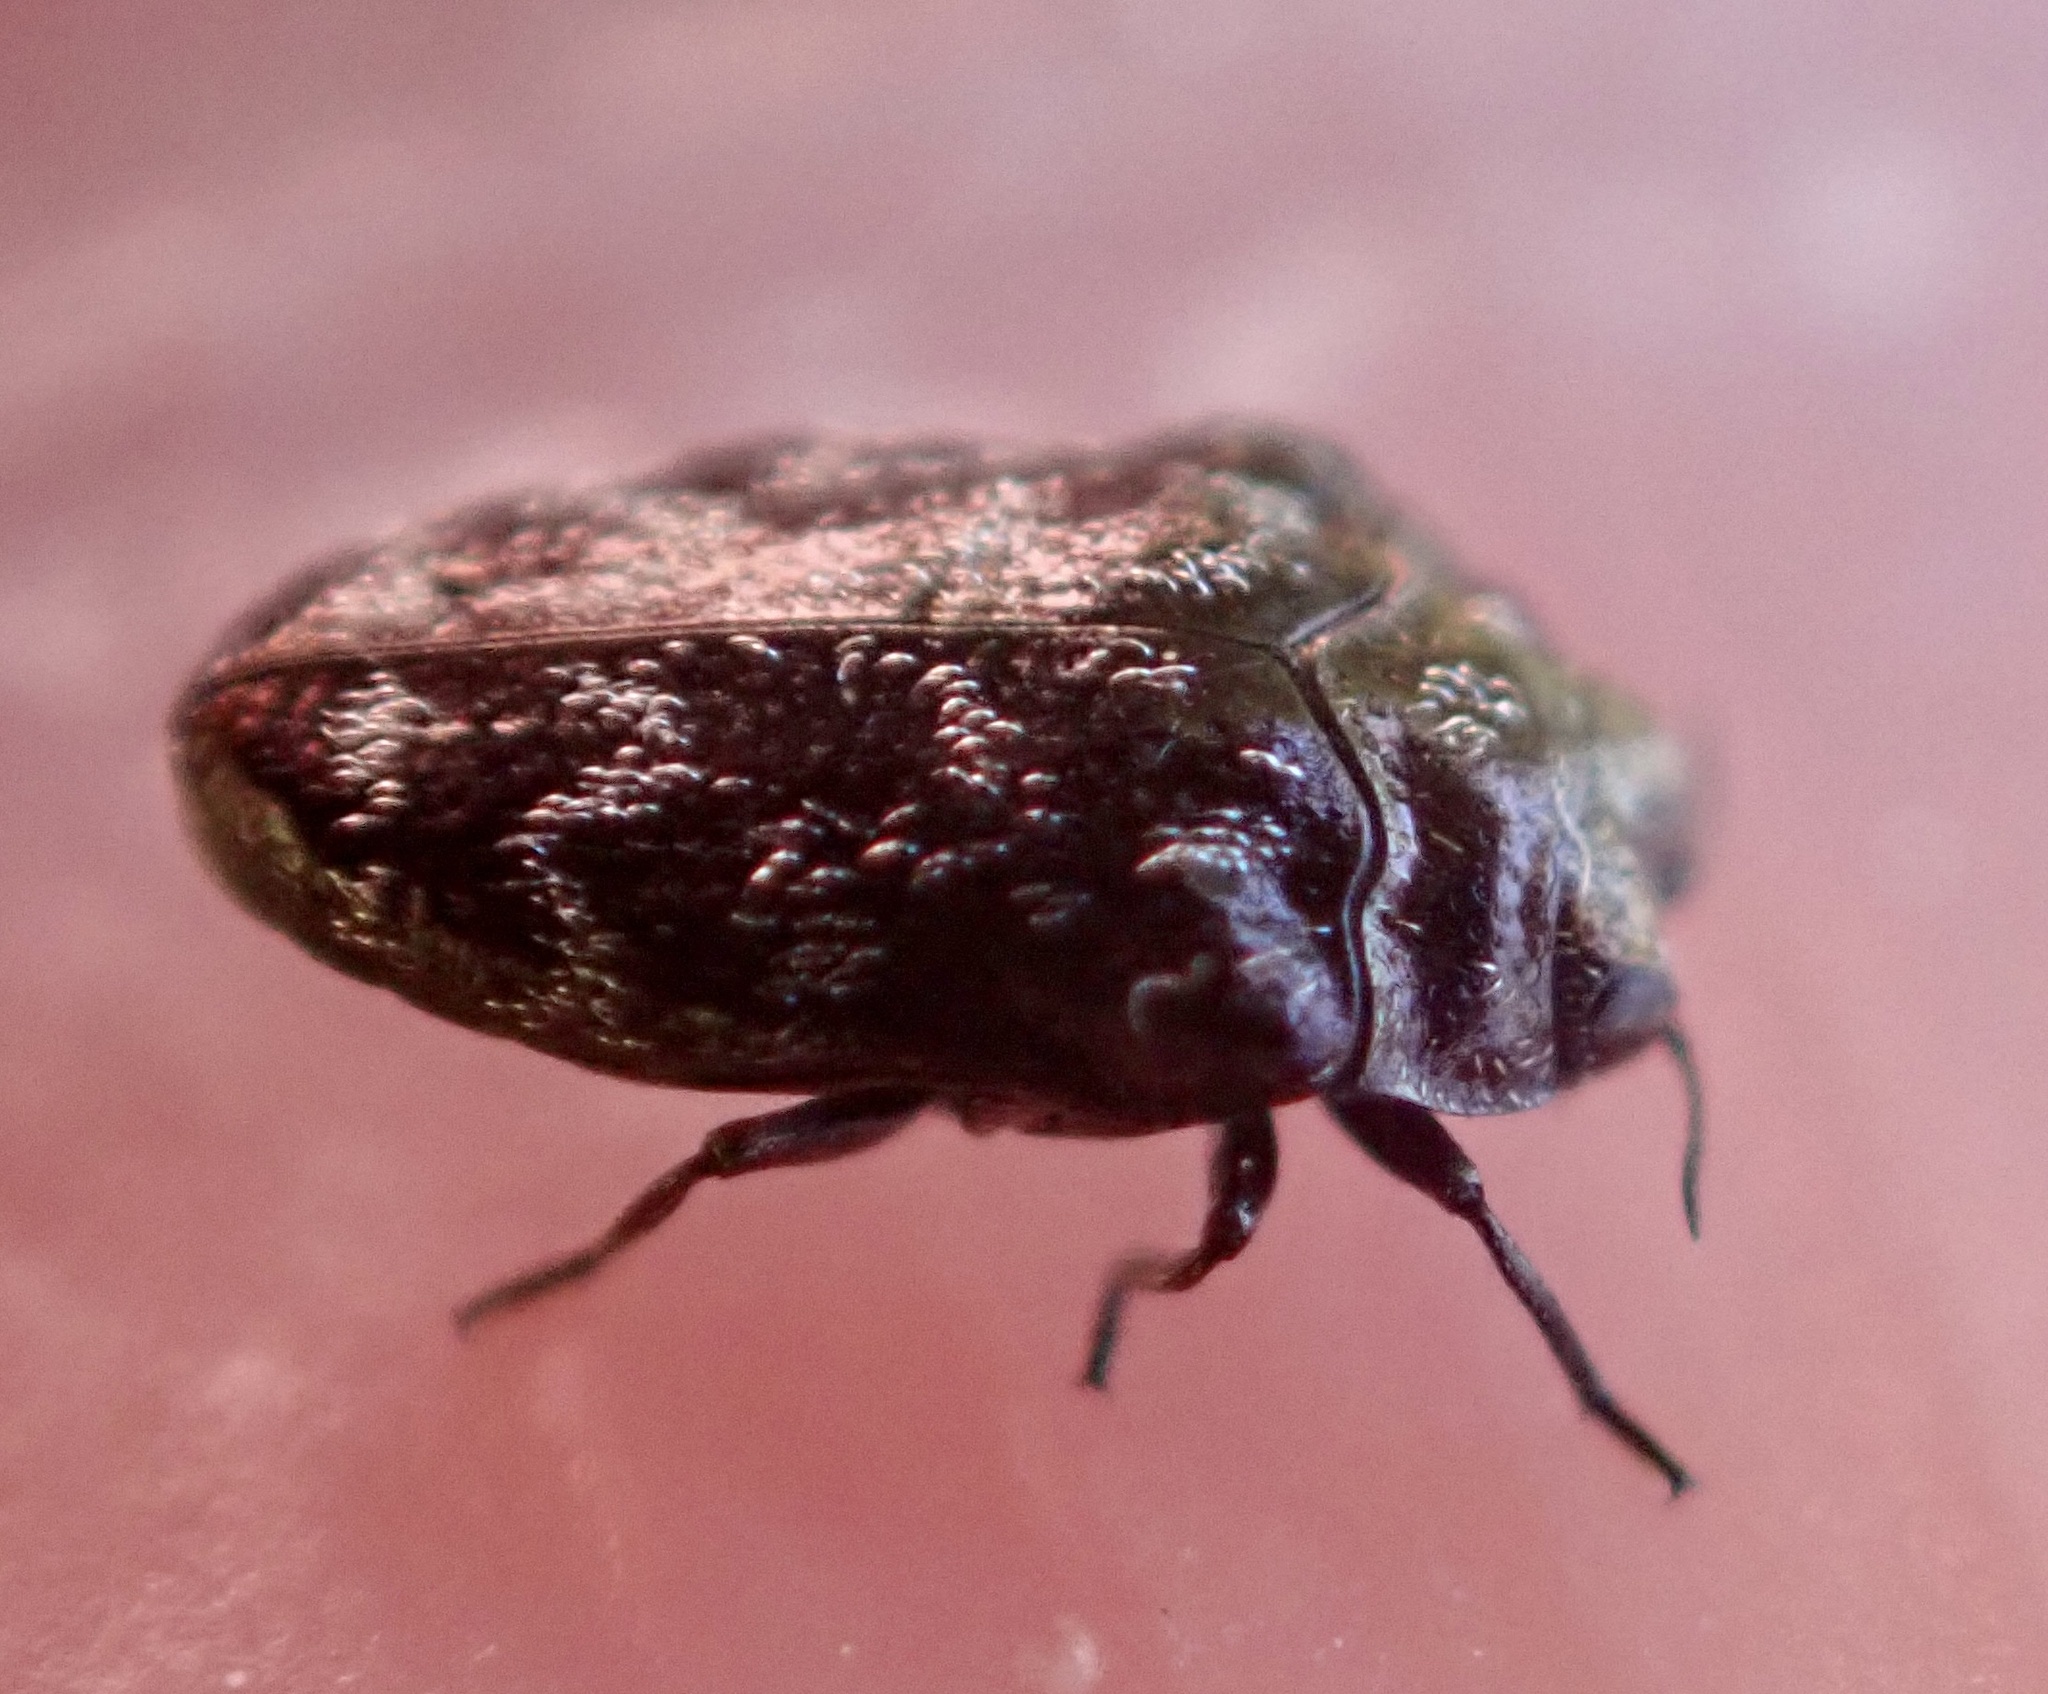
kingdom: Animalia
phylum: Arthropoda
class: Insecta
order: Coleoptera
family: Buprestidae
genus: Trachys
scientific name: Trachys minutus
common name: Metallic wood-boring beetle
